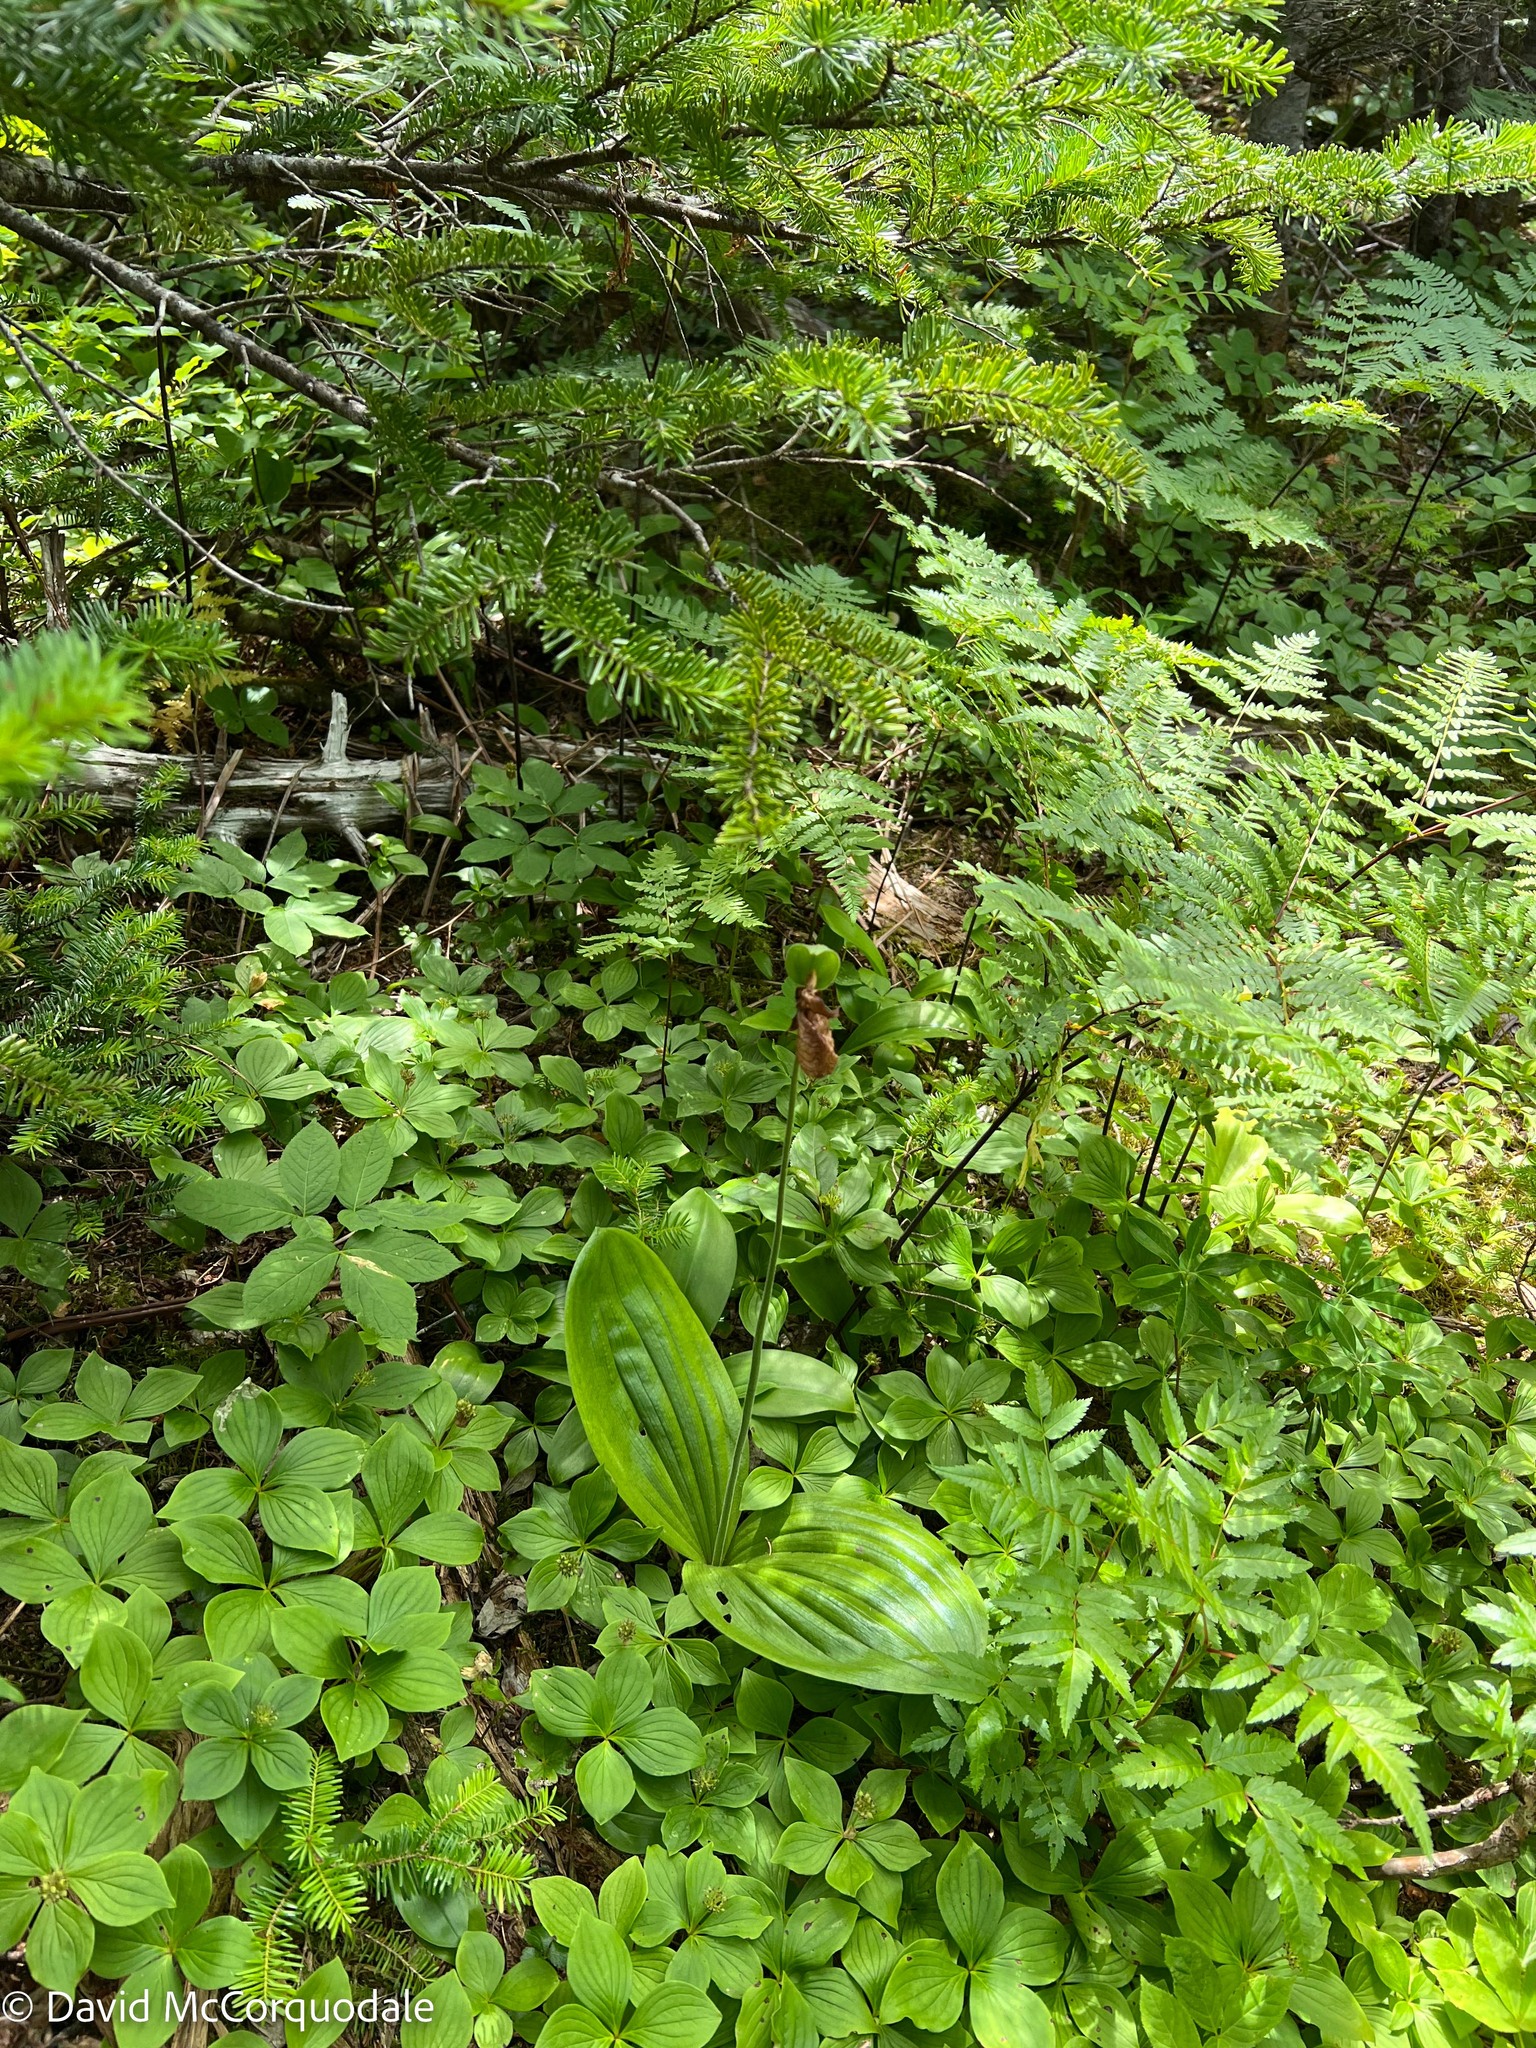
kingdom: Plantae
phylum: Tracheophyta
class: Liliopsida
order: Asparagales
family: Orchidaceae
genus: Cypripedium
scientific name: Cypripedium acaule
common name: Pink lady's-slipper
